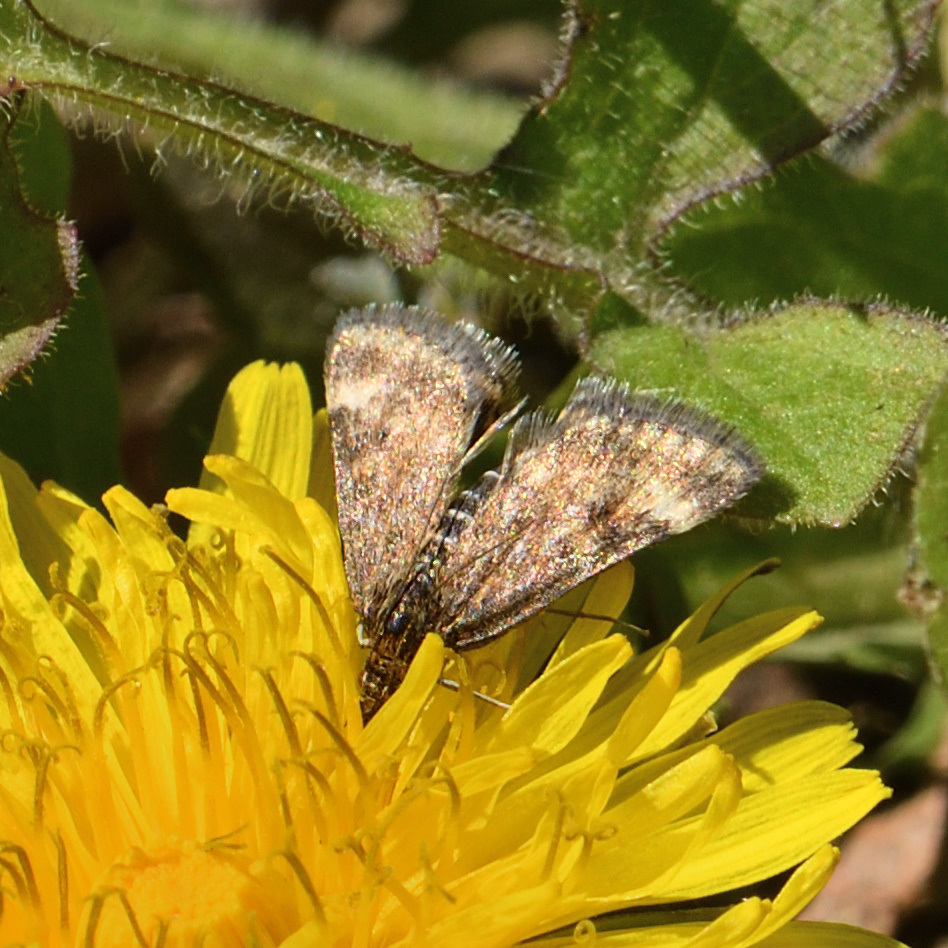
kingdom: Animalia
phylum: Arthropoda
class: Insecta
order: Lepidoptera
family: Crambidae
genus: Pyrausta
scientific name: Pyrausta despicata
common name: Straw-barred pearl
